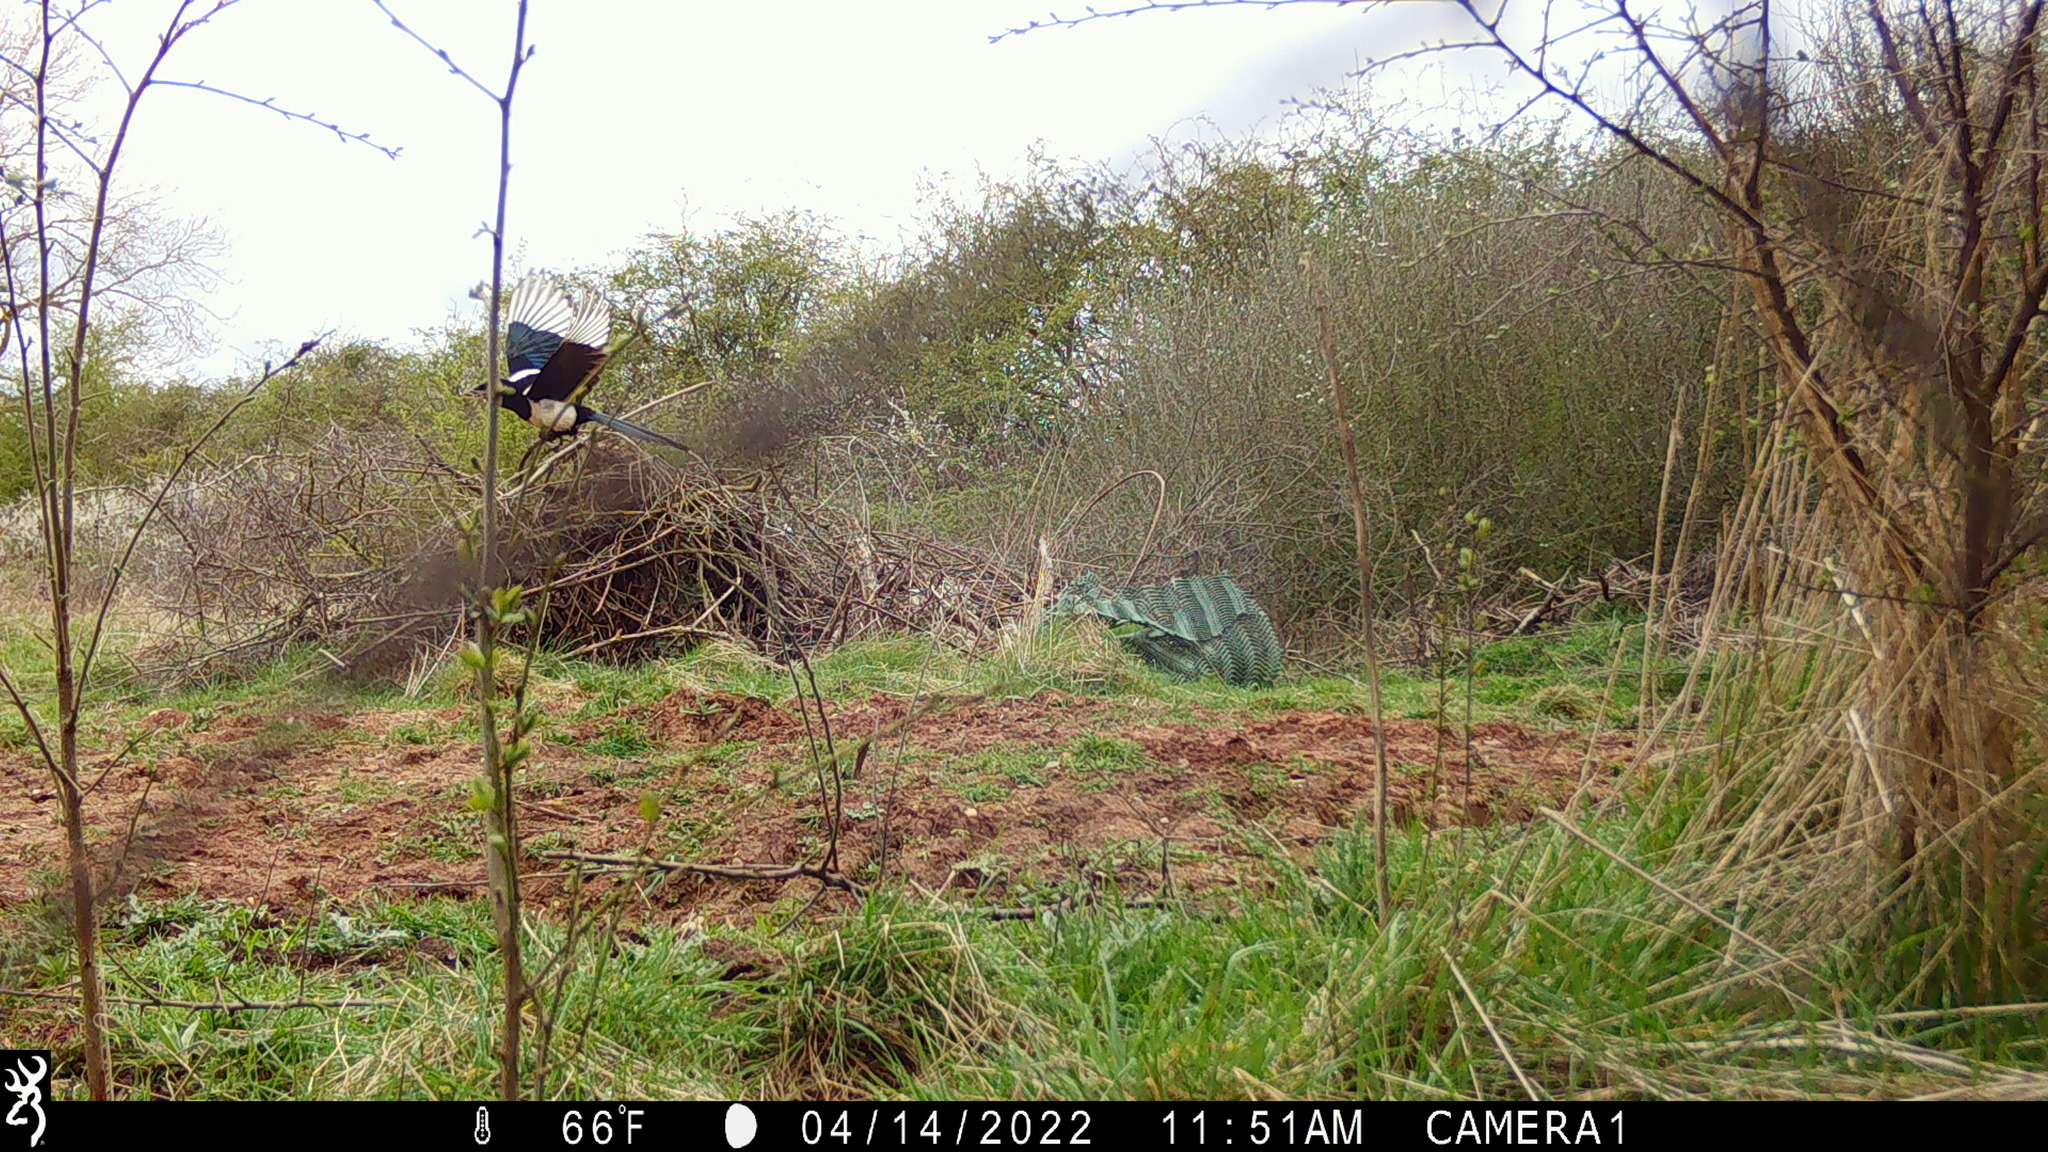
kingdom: Animalia
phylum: Chordata
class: Aves
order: Passeriformes
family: Corvidae
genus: Pica
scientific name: Pica pica
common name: Eurasian magpie
